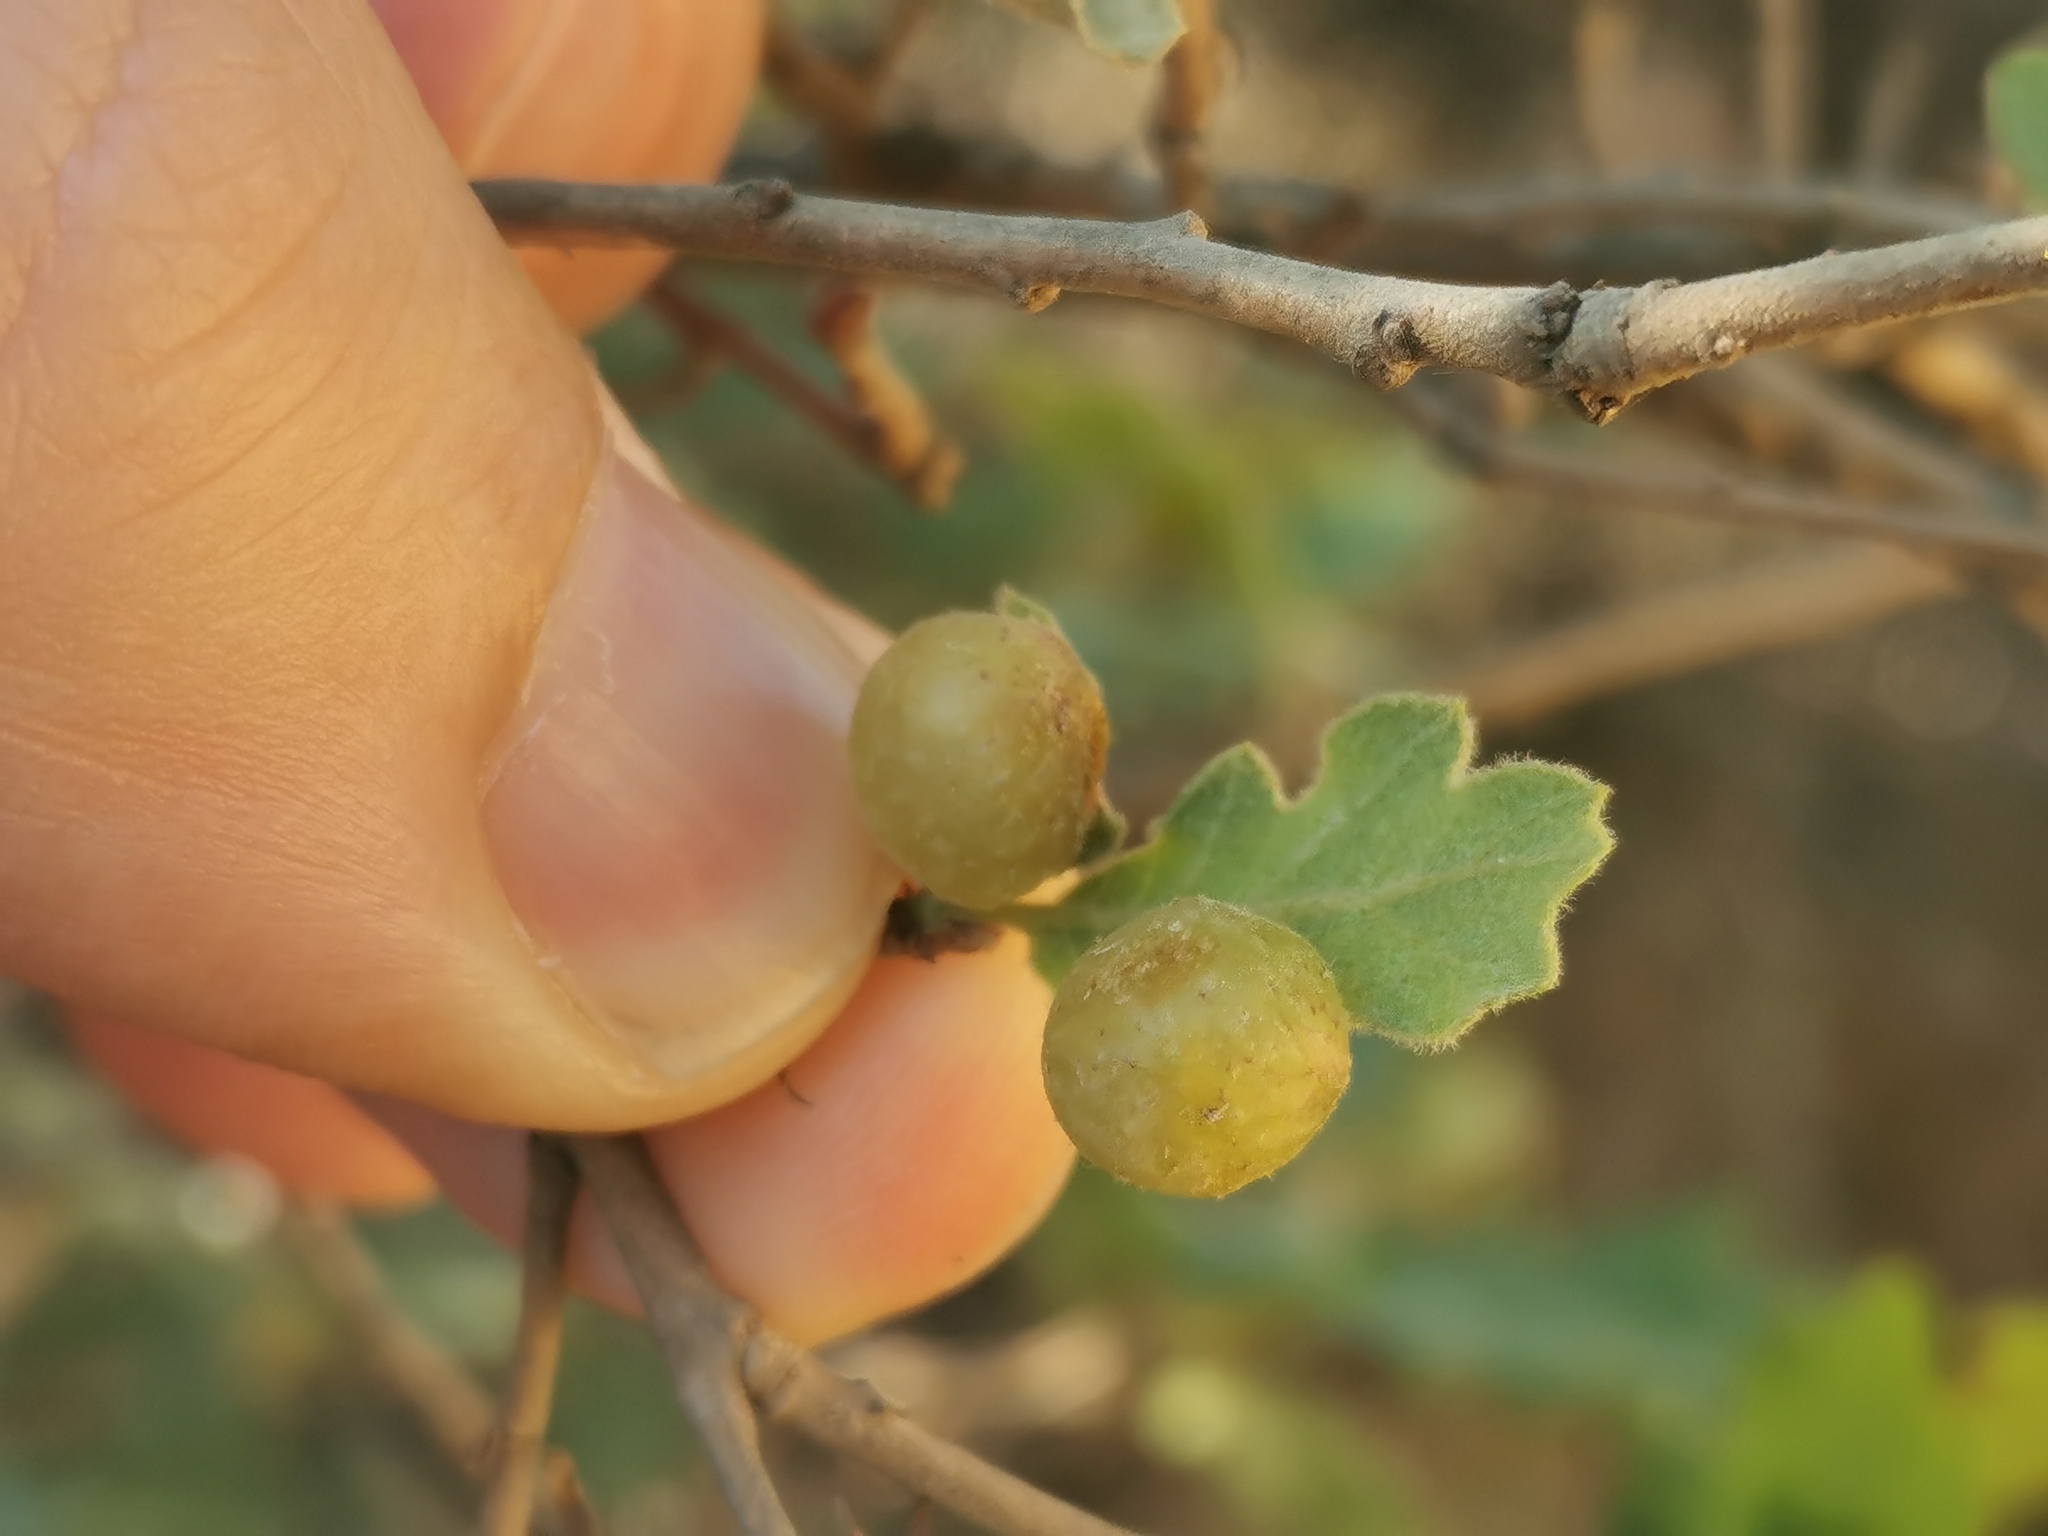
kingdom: Animalia
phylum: Arthropoda
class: Insecta
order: Hymenoptera
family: Cynipidae
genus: Neuroterus
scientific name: Neuroterus quercusbaccarum
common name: Common spangle gall
